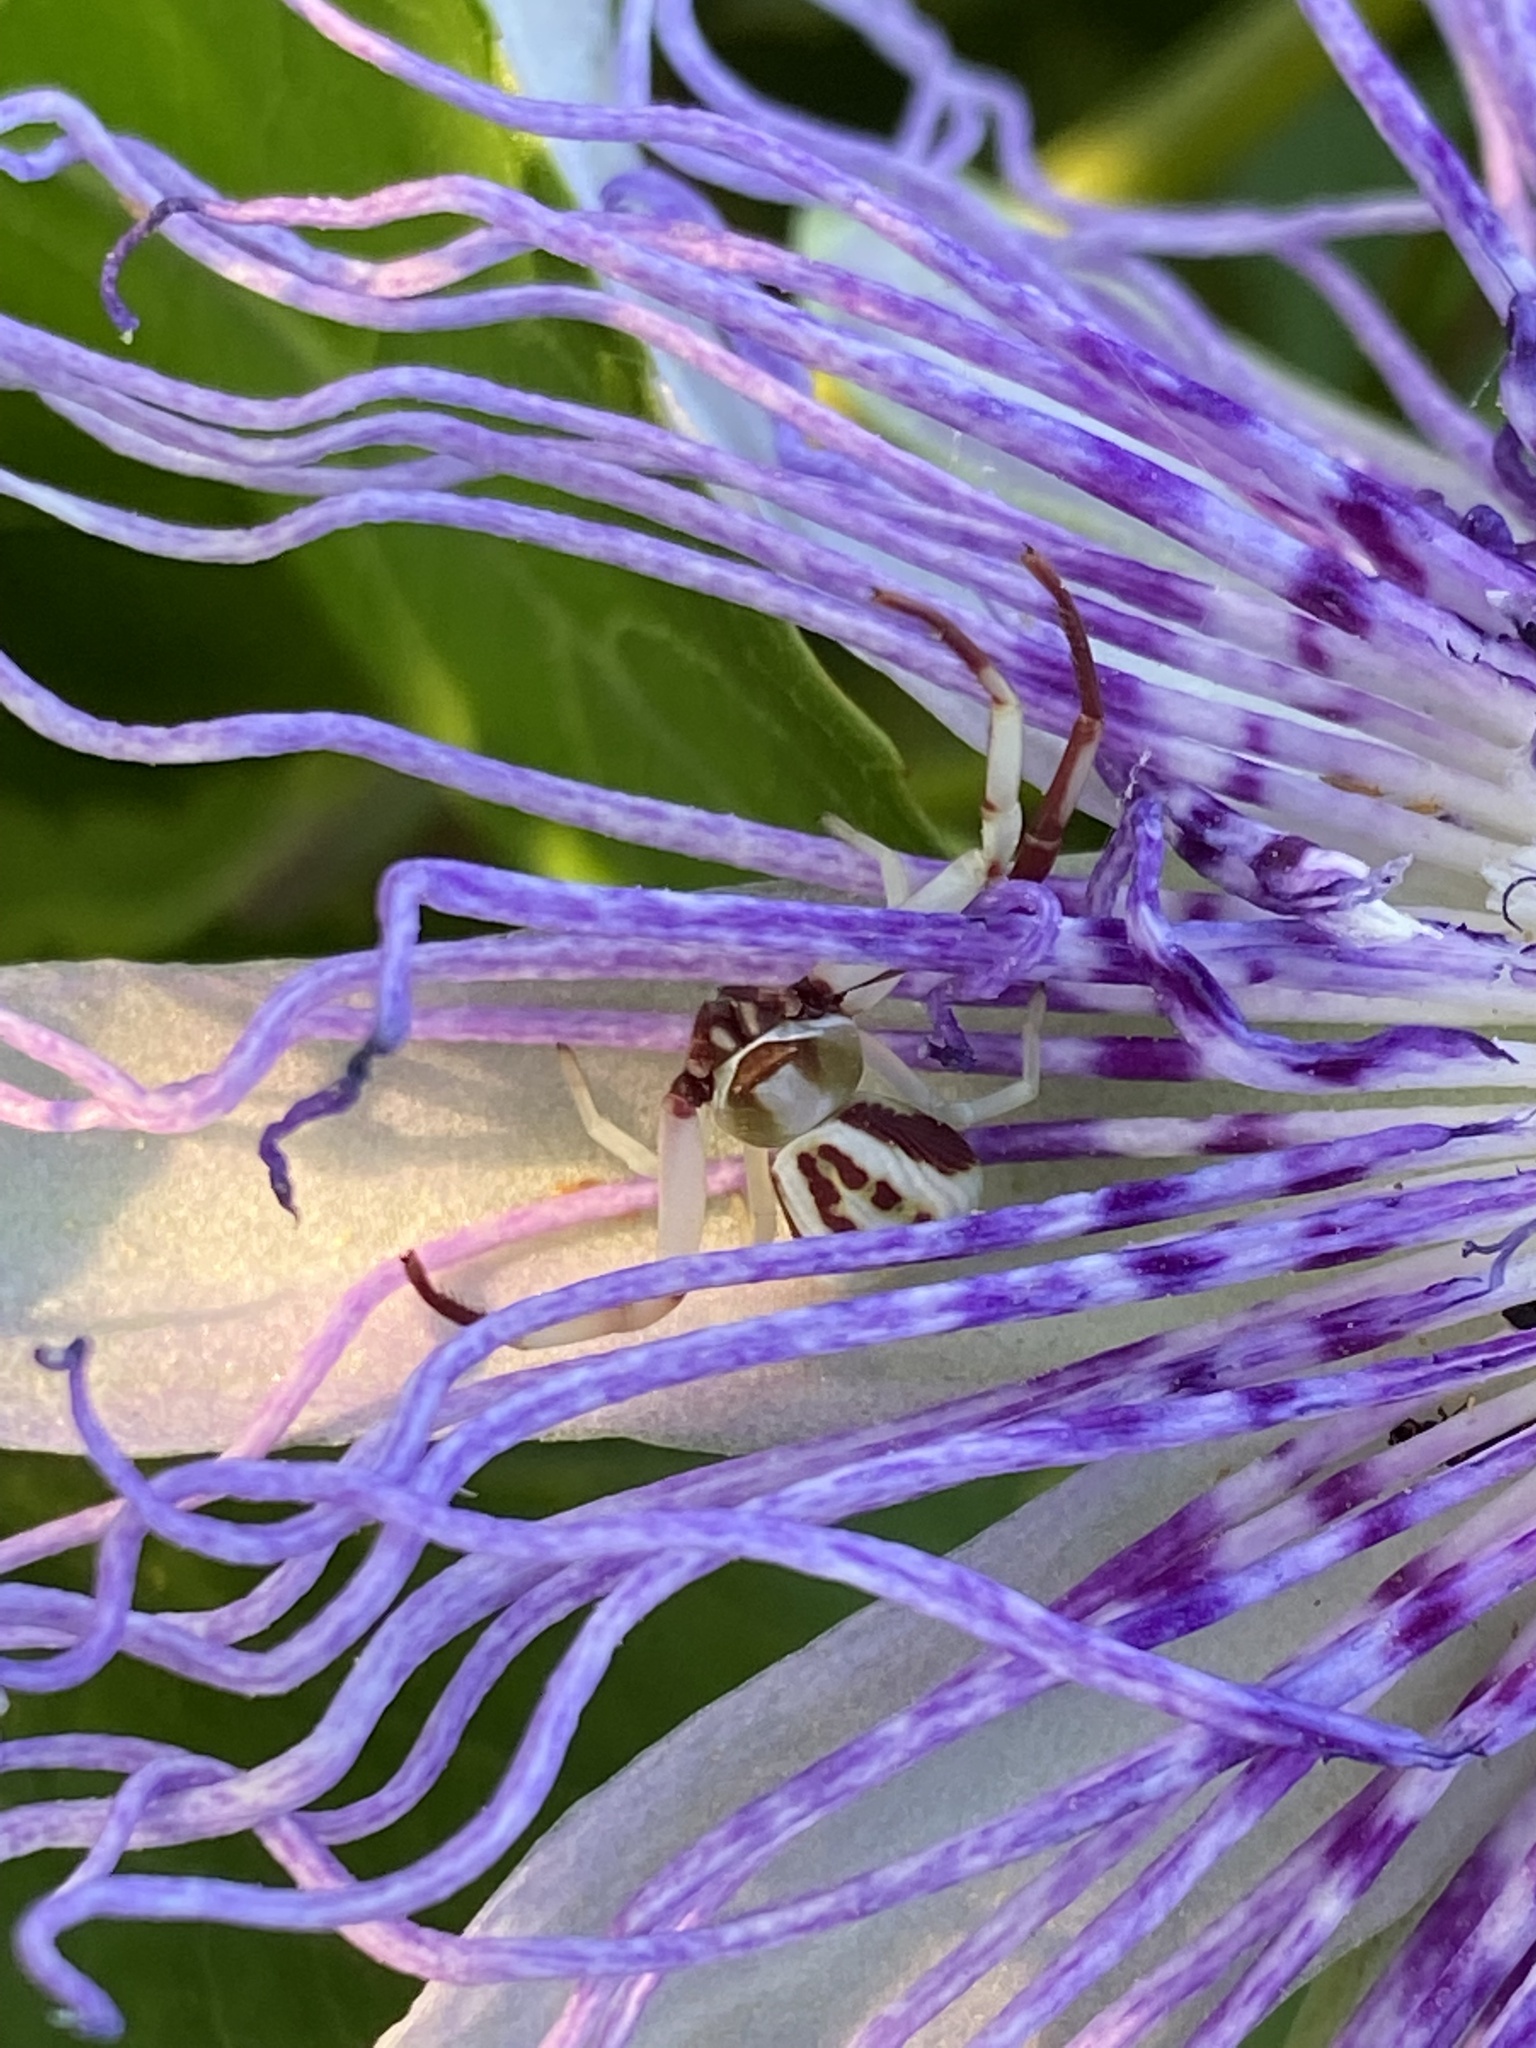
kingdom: Animalia
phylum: Arthropoda
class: Arachnida
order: Araneae
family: Thomisidae
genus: Misumenoides
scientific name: Misumenoides formosipes
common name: White-banded crab spider
